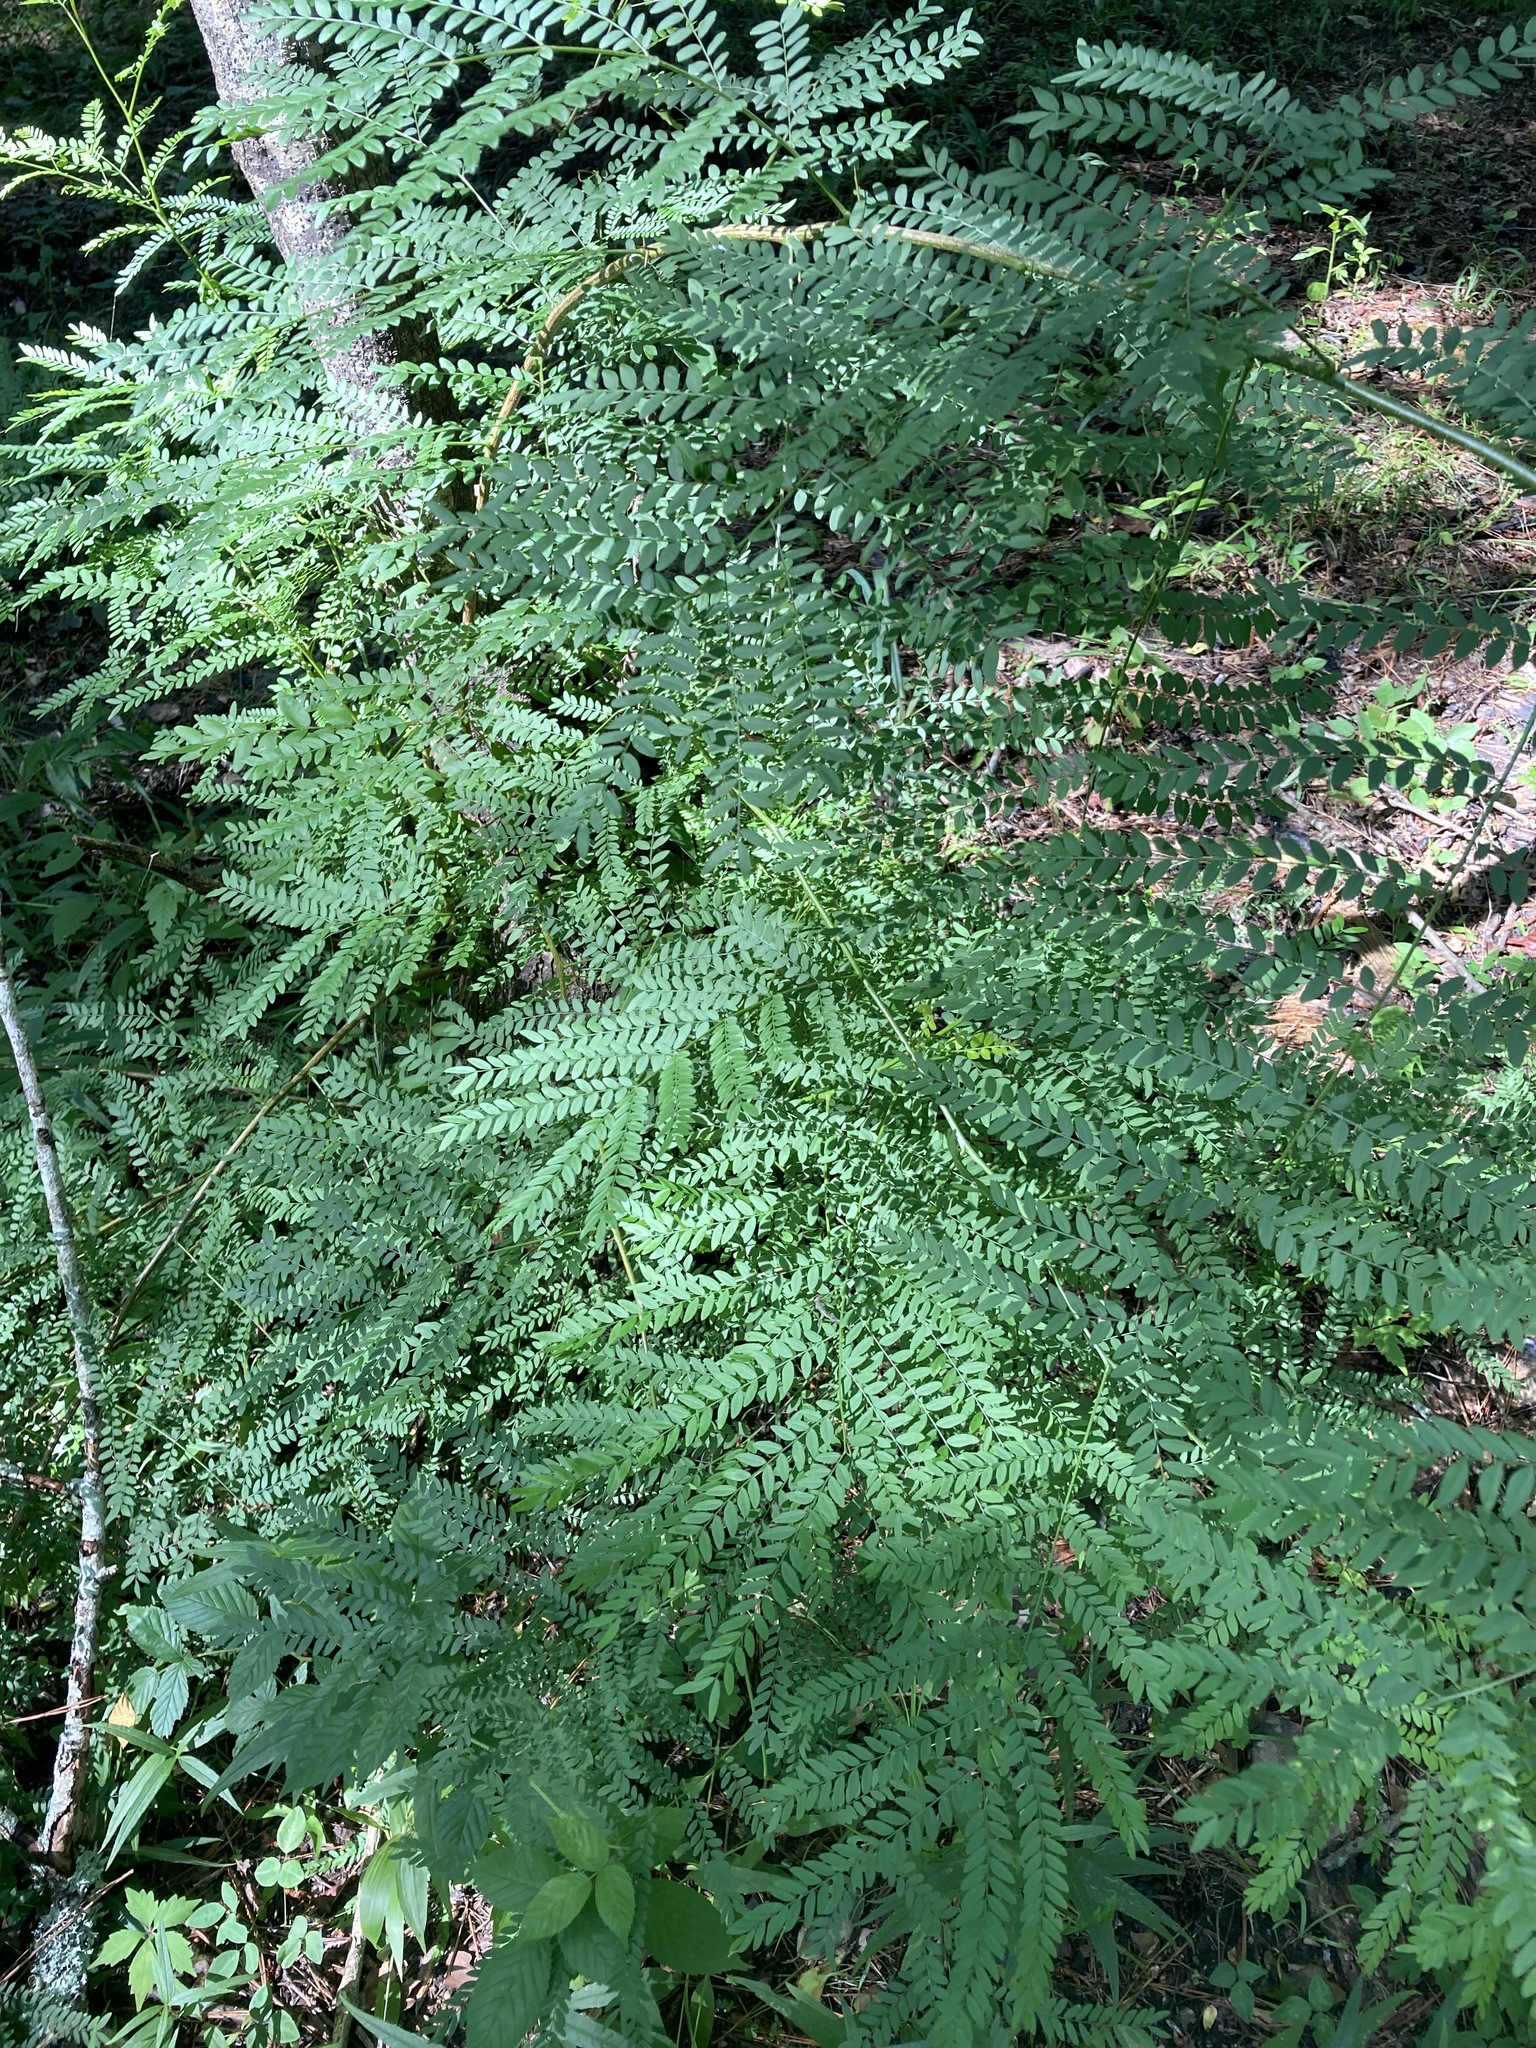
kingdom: Plantae
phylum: Tracheophyta
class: Magnoliopsida
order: Fabales
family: Fabaceae
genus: Gleditsia
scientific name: Gleditsia triacanthos
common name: Common honeylocust
